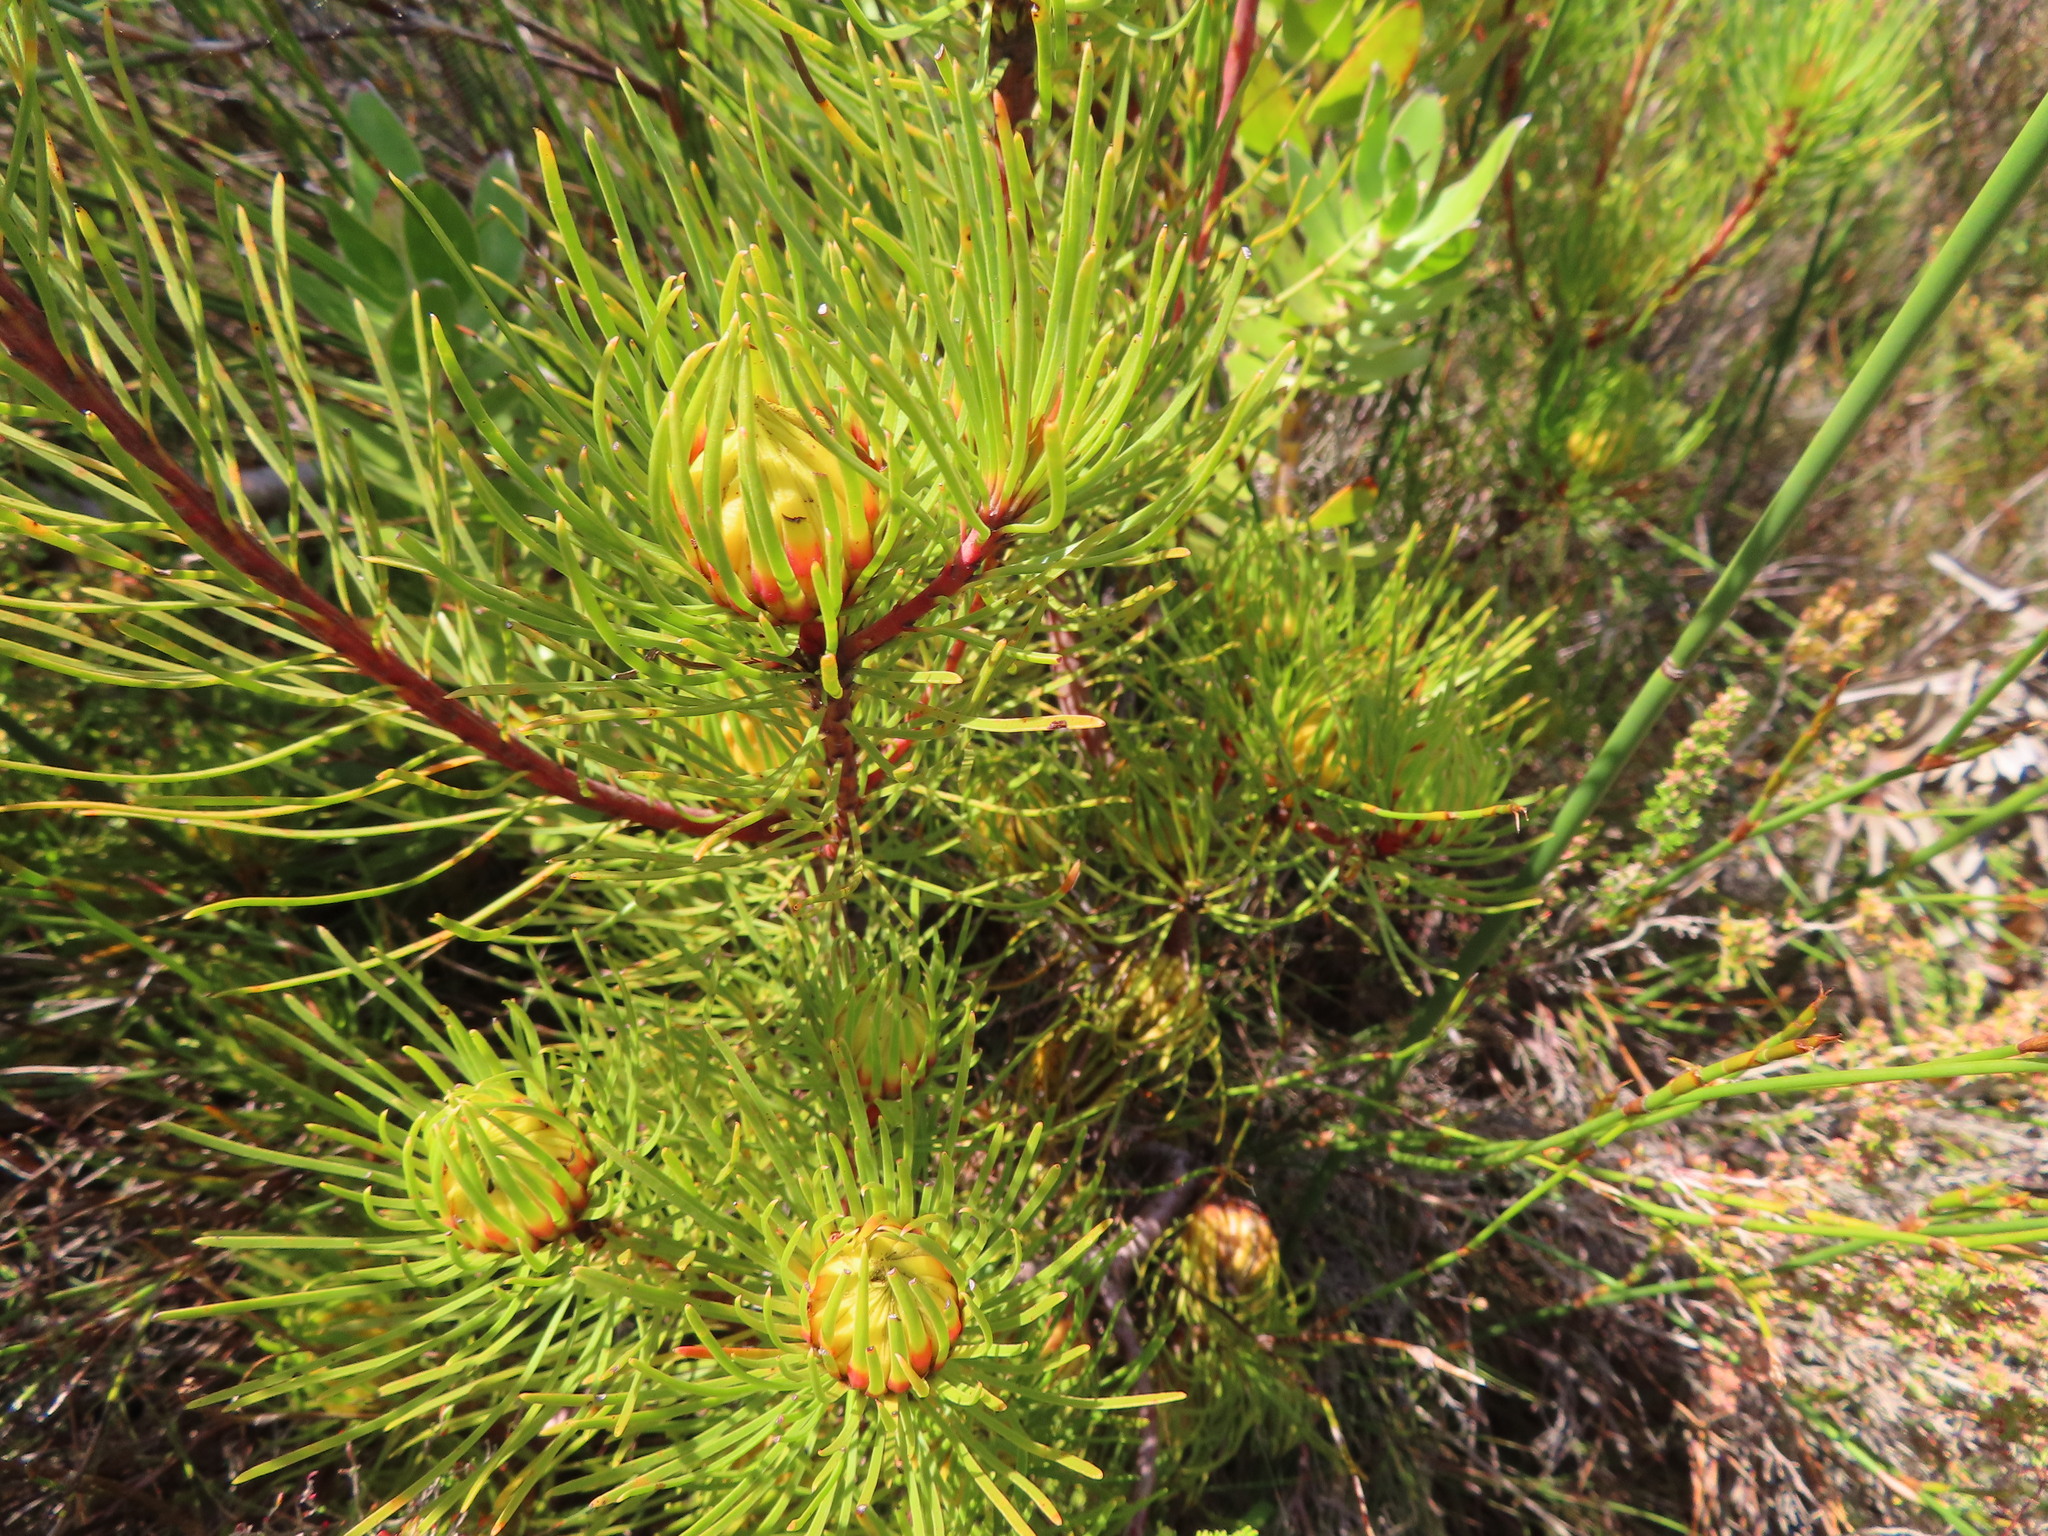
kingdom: Plantae
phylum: Tracheophyta
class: Magnoliopsida
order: Proteales
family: Proteaceae
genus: Aulax
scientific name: Aulax cancellata
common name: Channel-leaf featherbush
